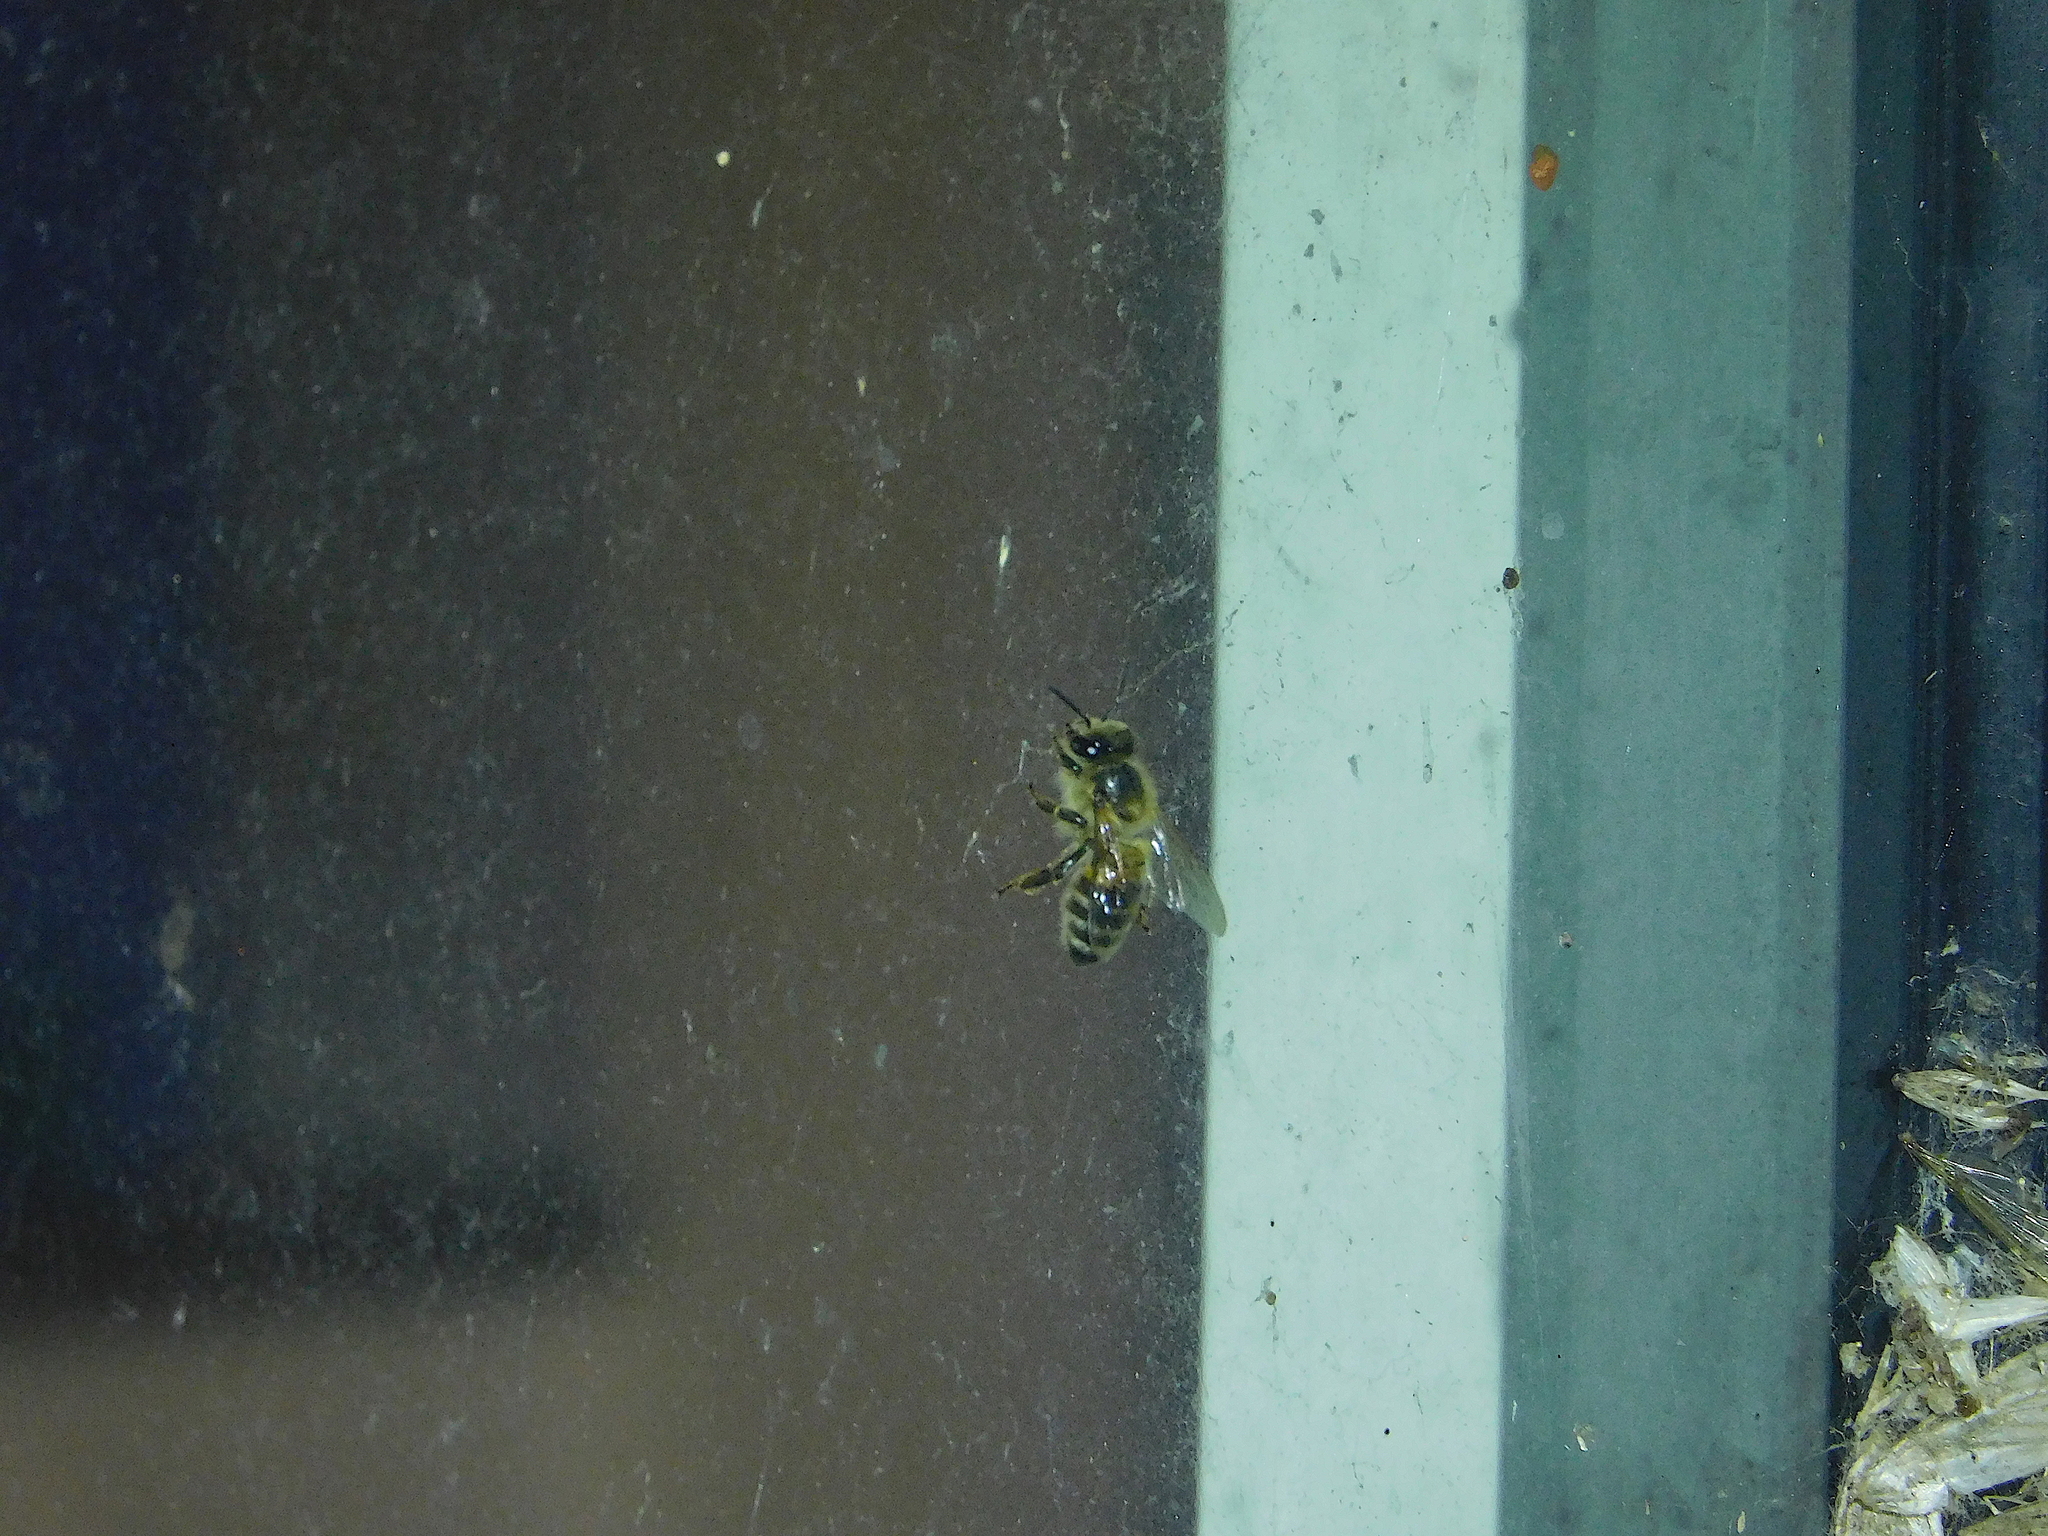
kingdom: Animalia
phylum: Arthropoda
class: Insecta
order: Hymenoptera
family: Apidae
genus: Apis
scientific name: Apis mellifera
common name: Honey bee
